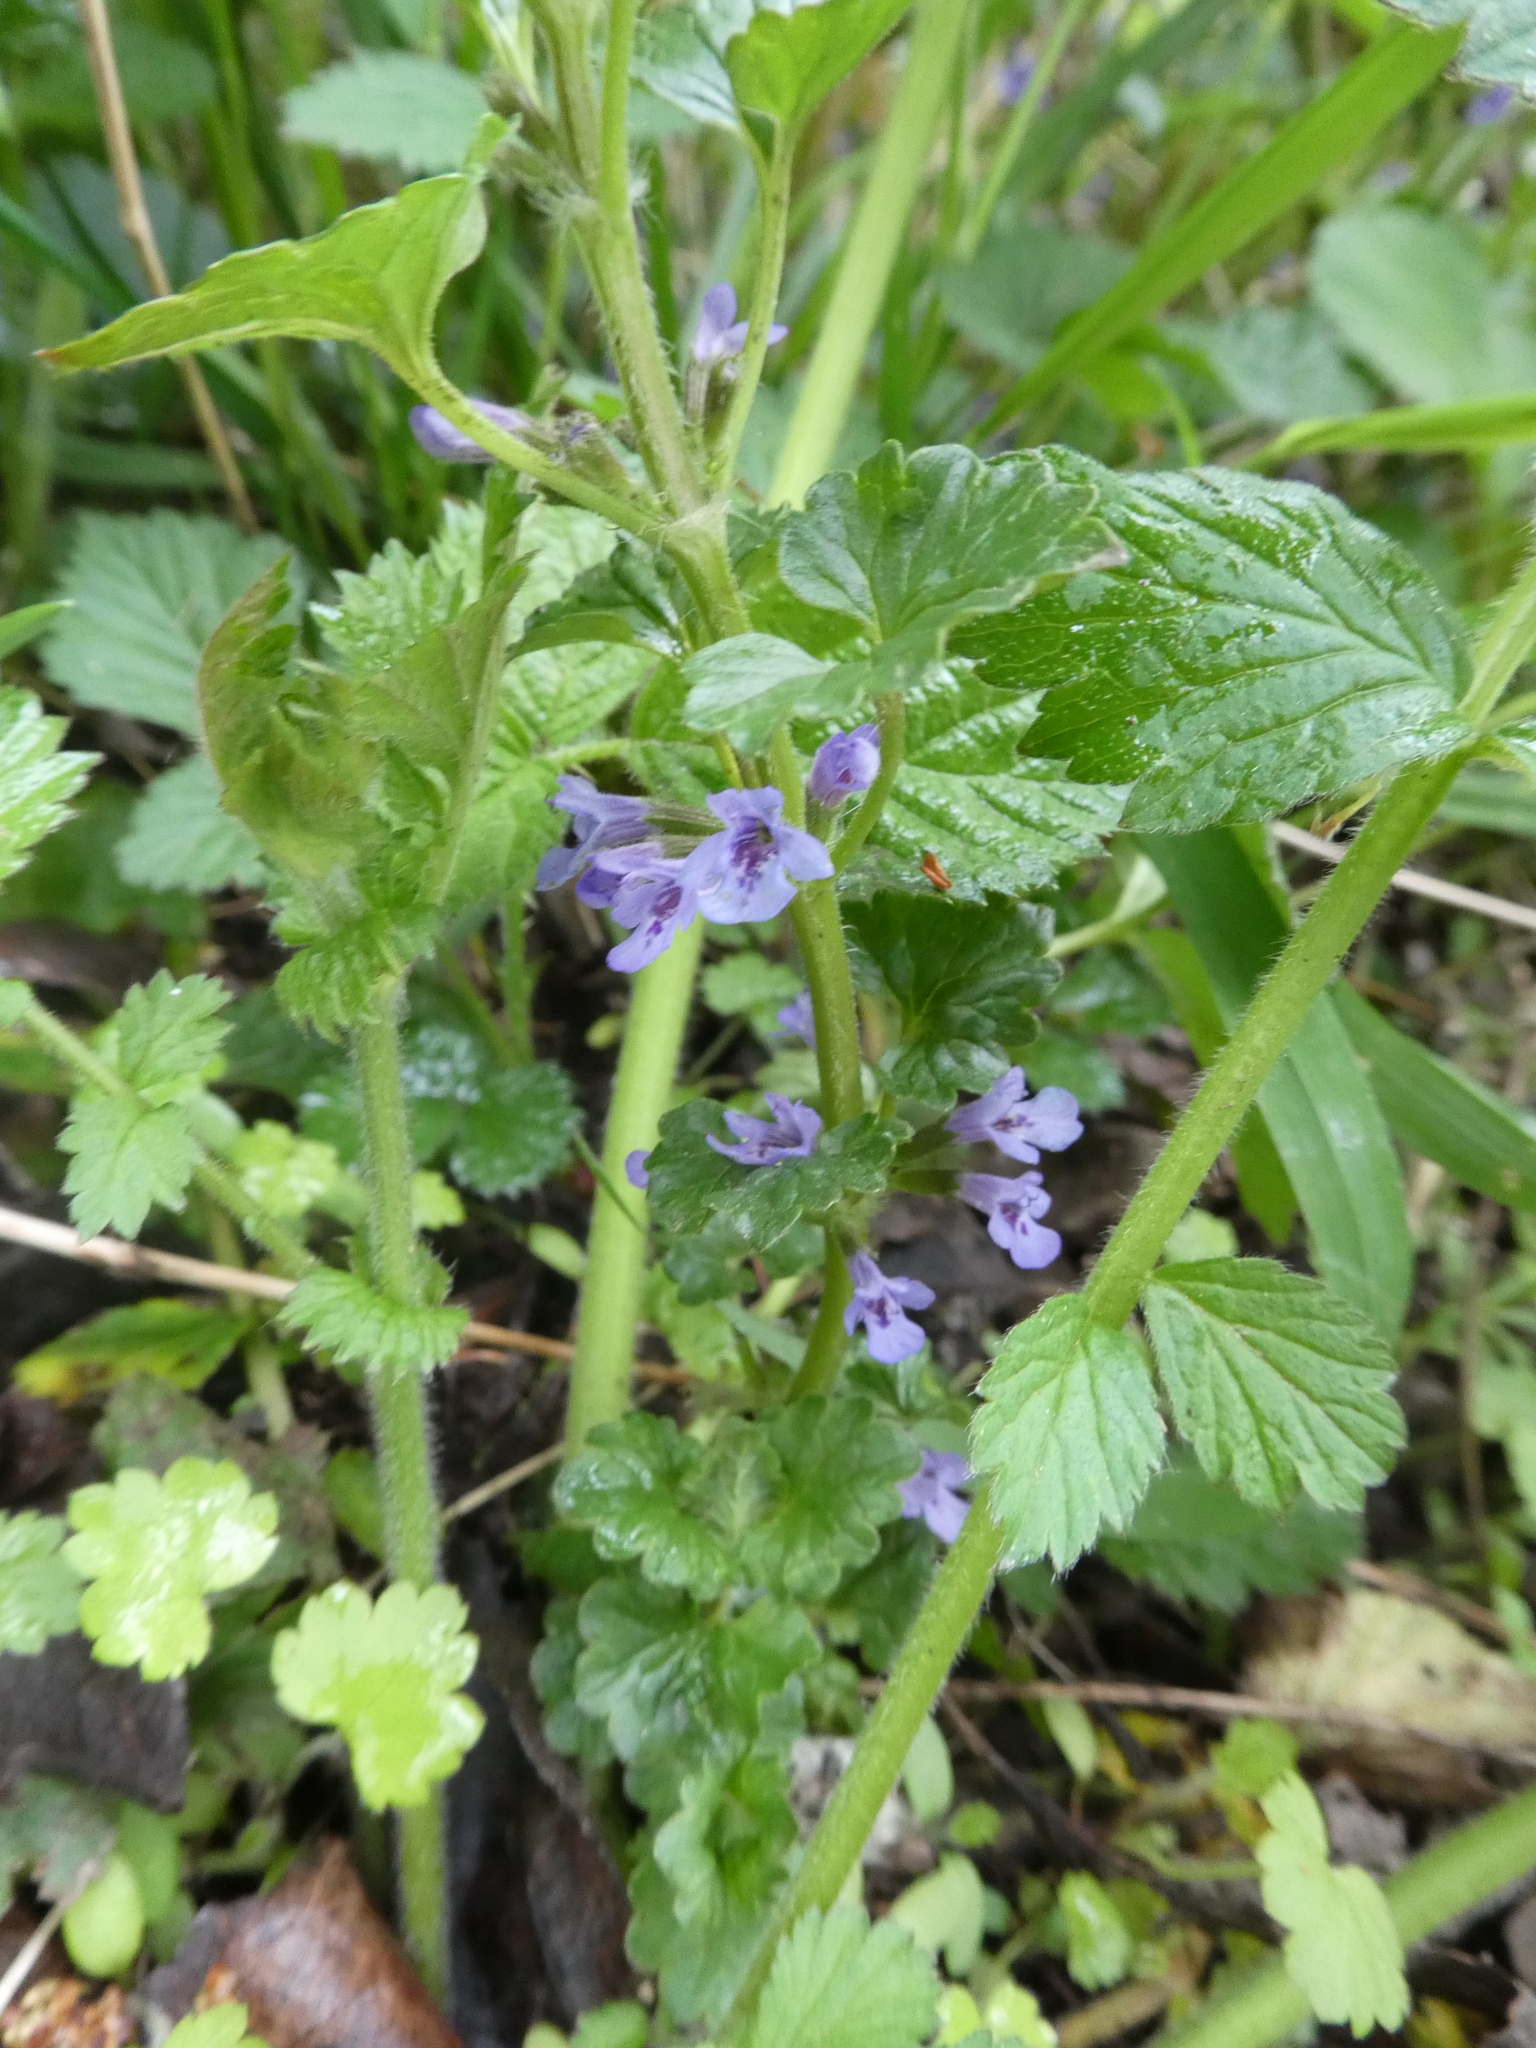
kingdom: Plantae
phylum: Tracheophyta
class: Magnoliopsida
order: Lamiales
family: Lamiaceae
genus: Glechoma
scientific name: Glechoma hederacea
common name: Ground ivy
